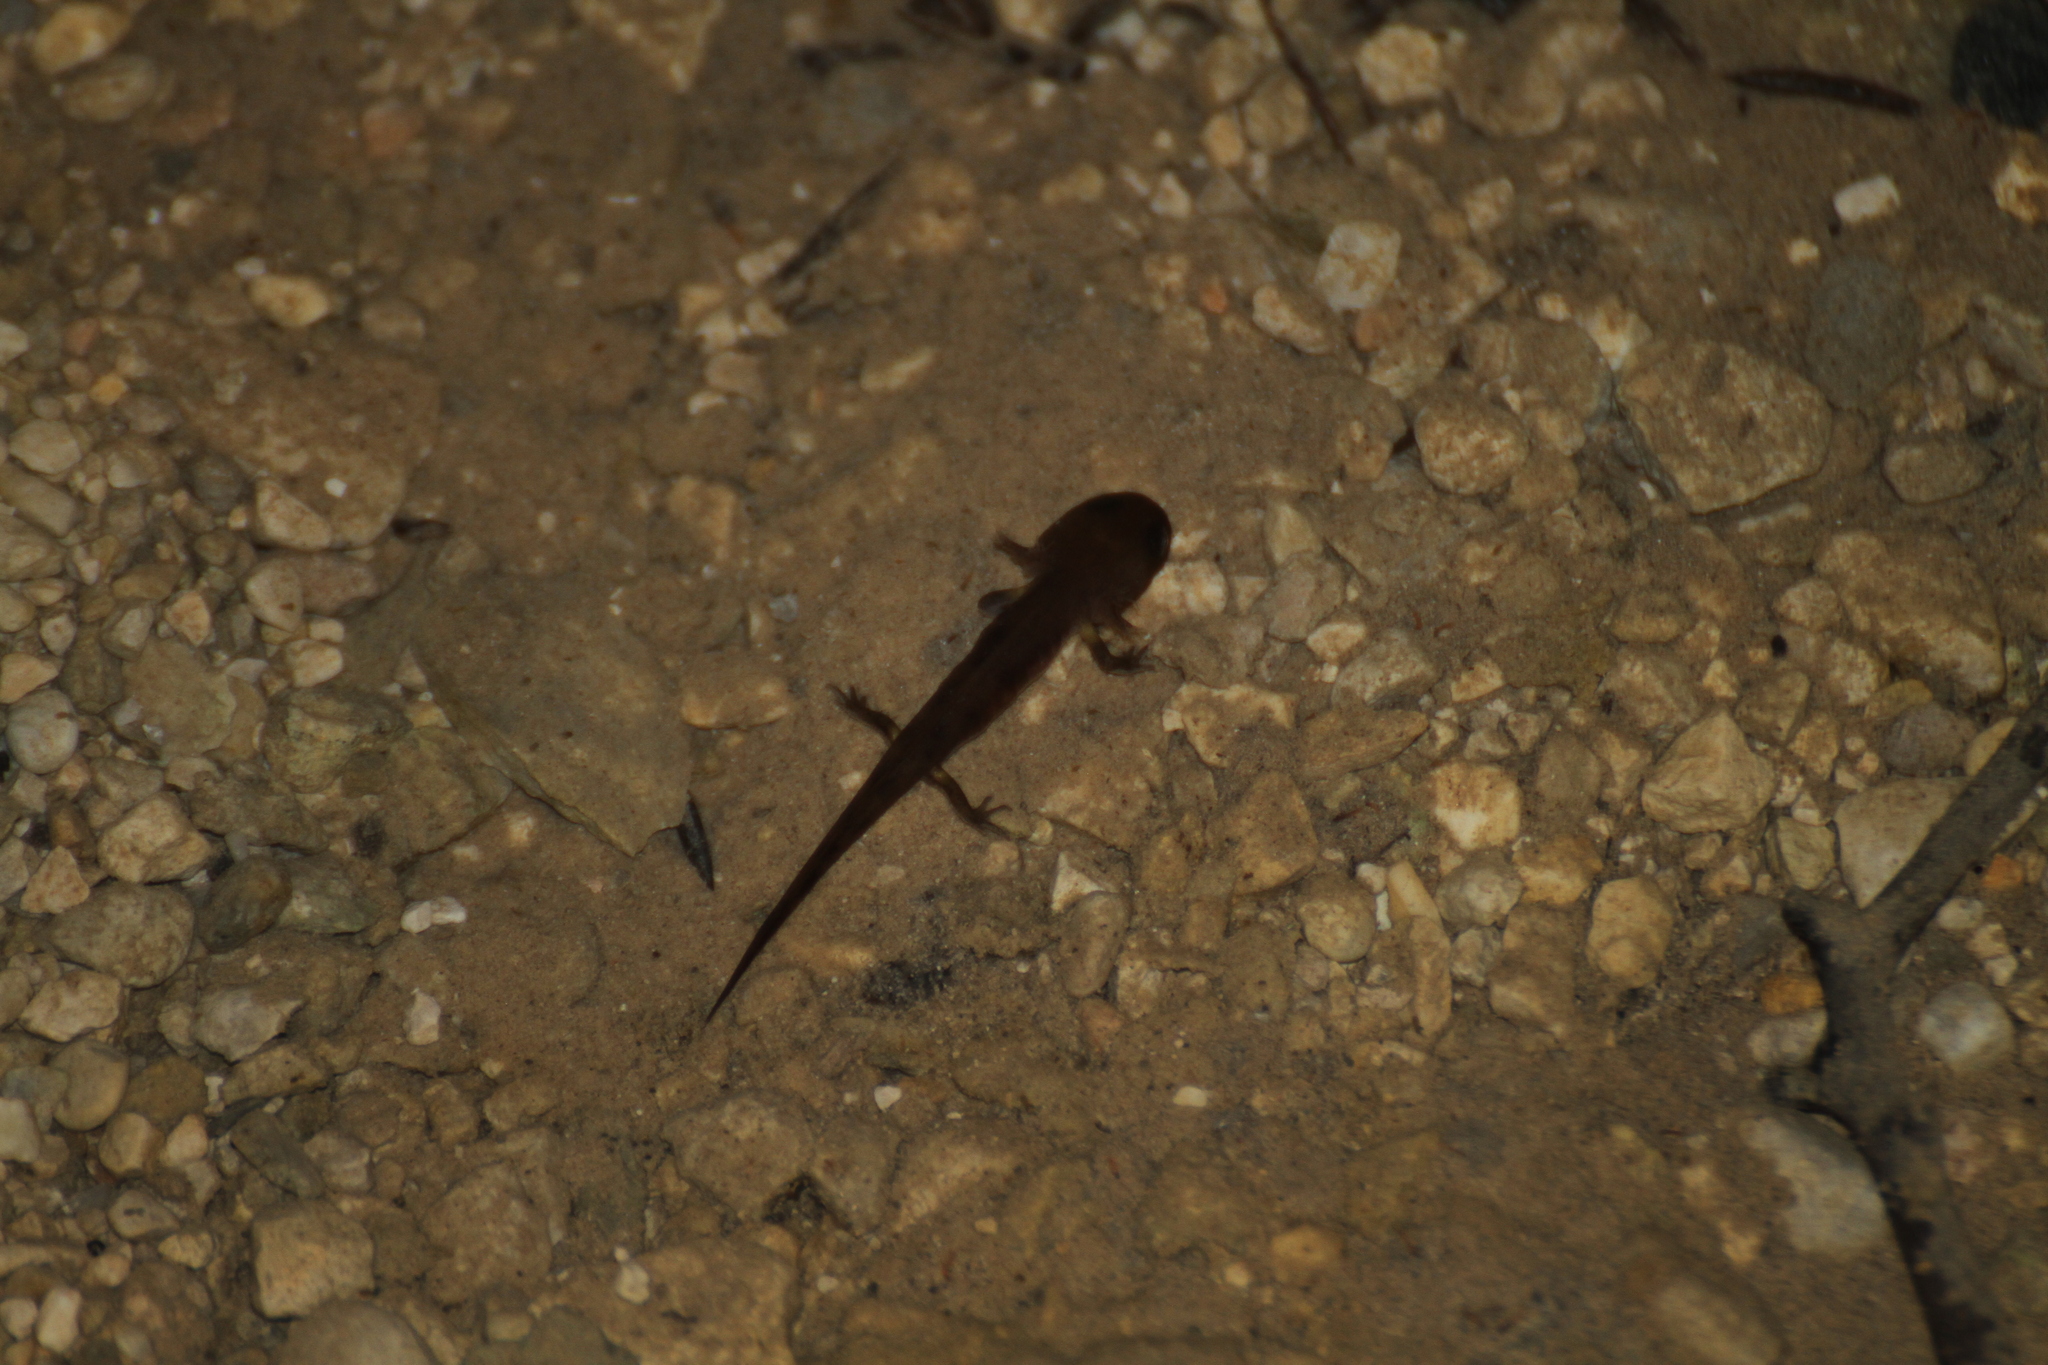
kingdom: Animalia
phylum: Chordata
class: Amphibia
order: Caudata
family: Salamandridae
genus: Salamandra
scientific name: Salamandra salamandra
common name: Fire salamander
